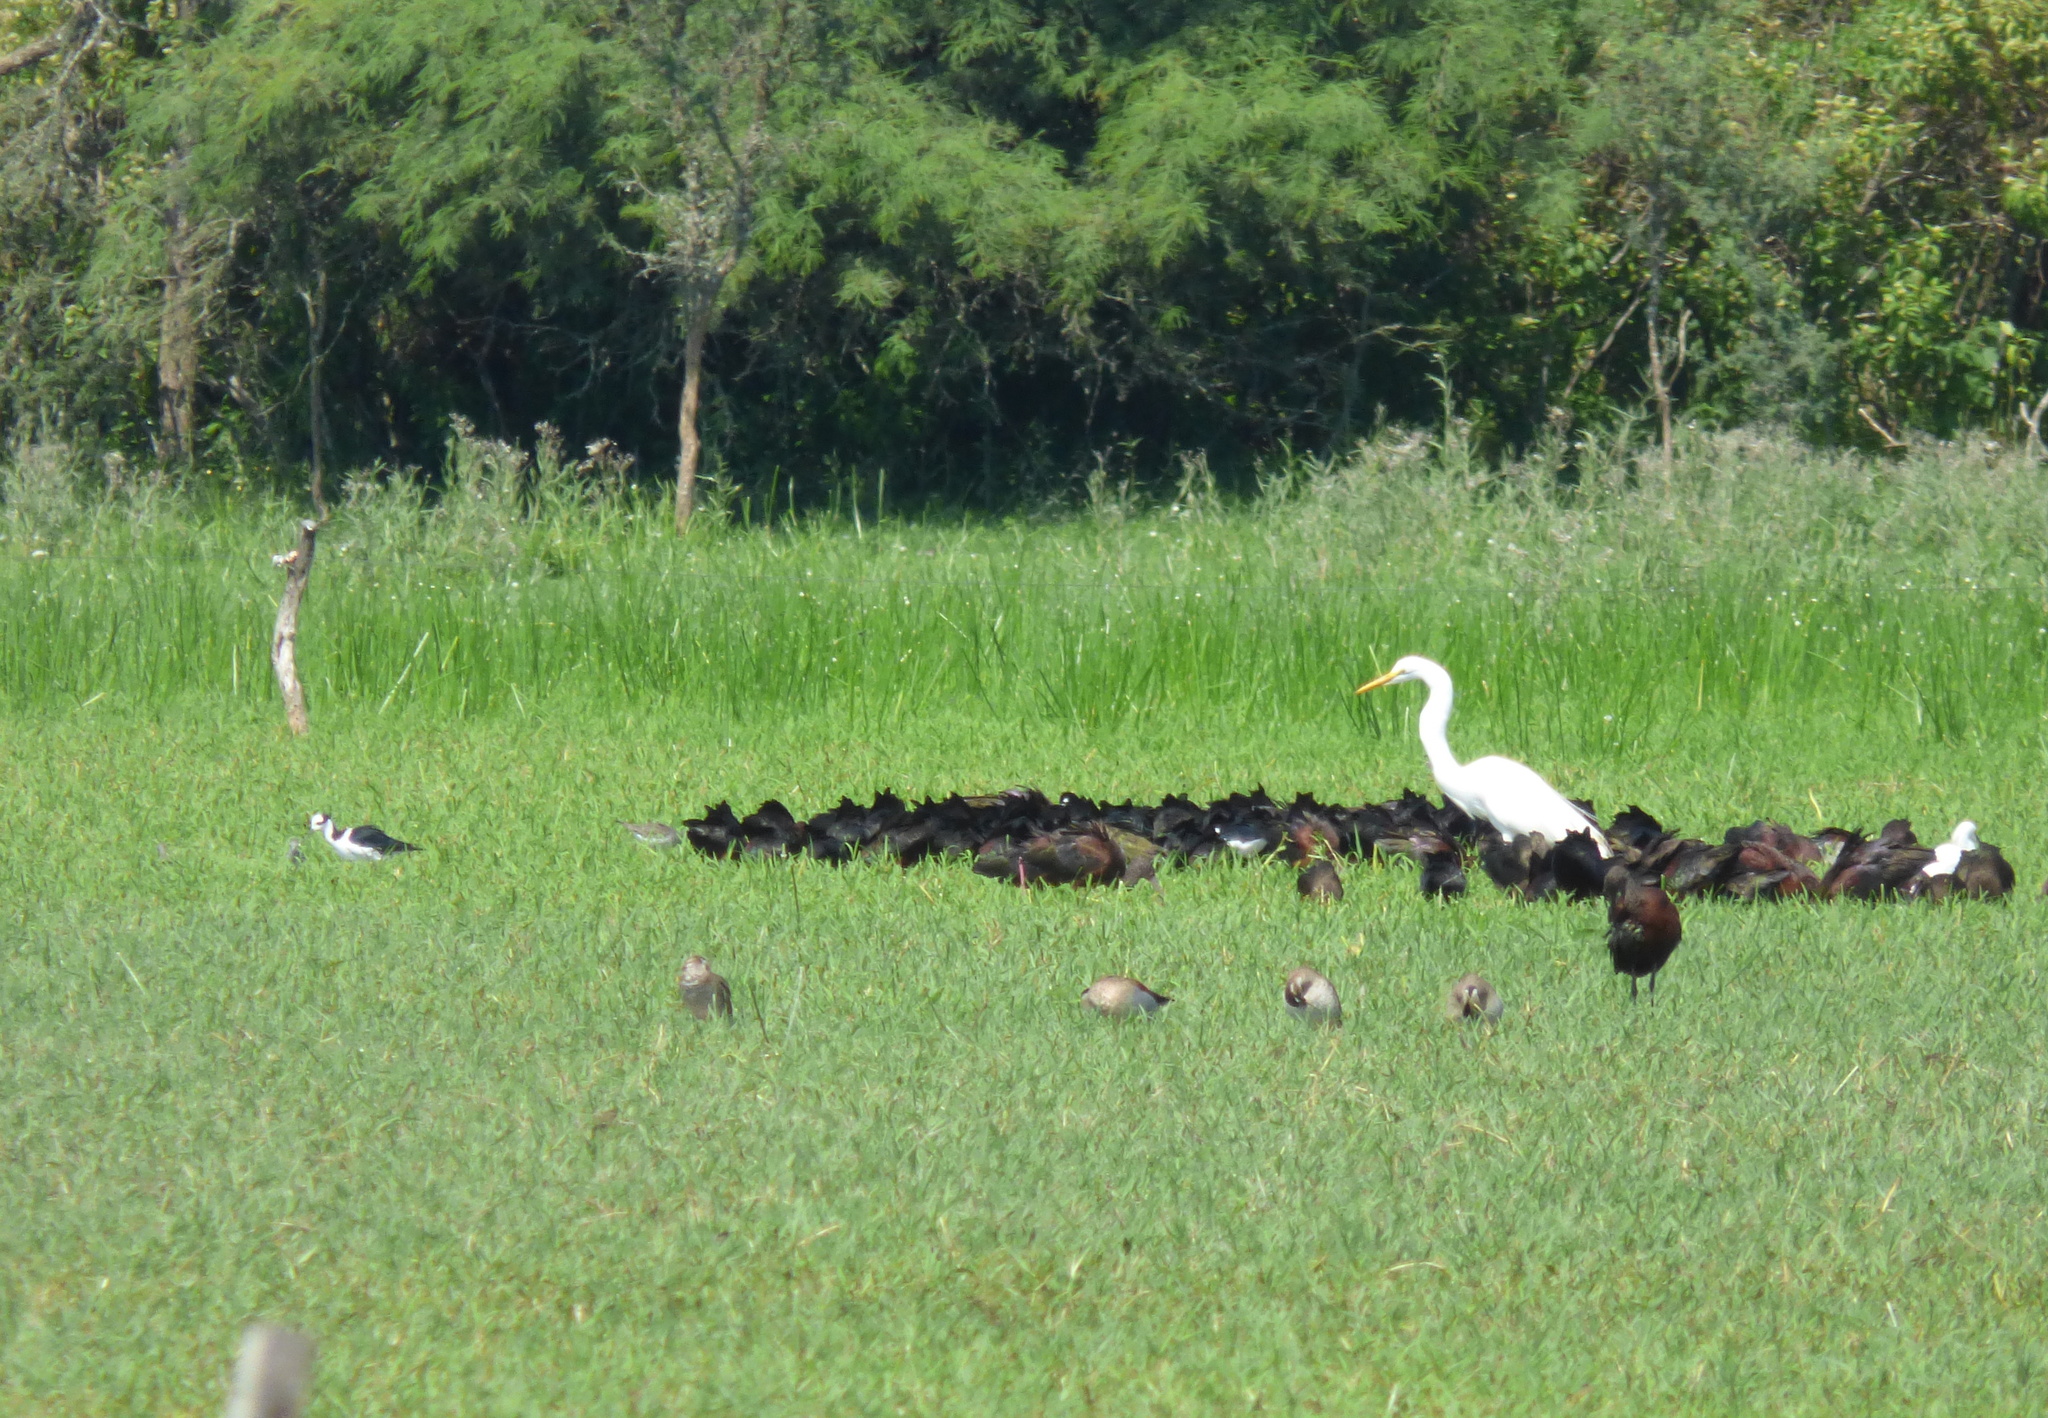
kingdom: Animalia
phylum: Chordata
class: Aves
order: Pelecaniformes
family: Ardeidae
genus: Ardea
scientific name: Ardea alba
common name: Great egret
